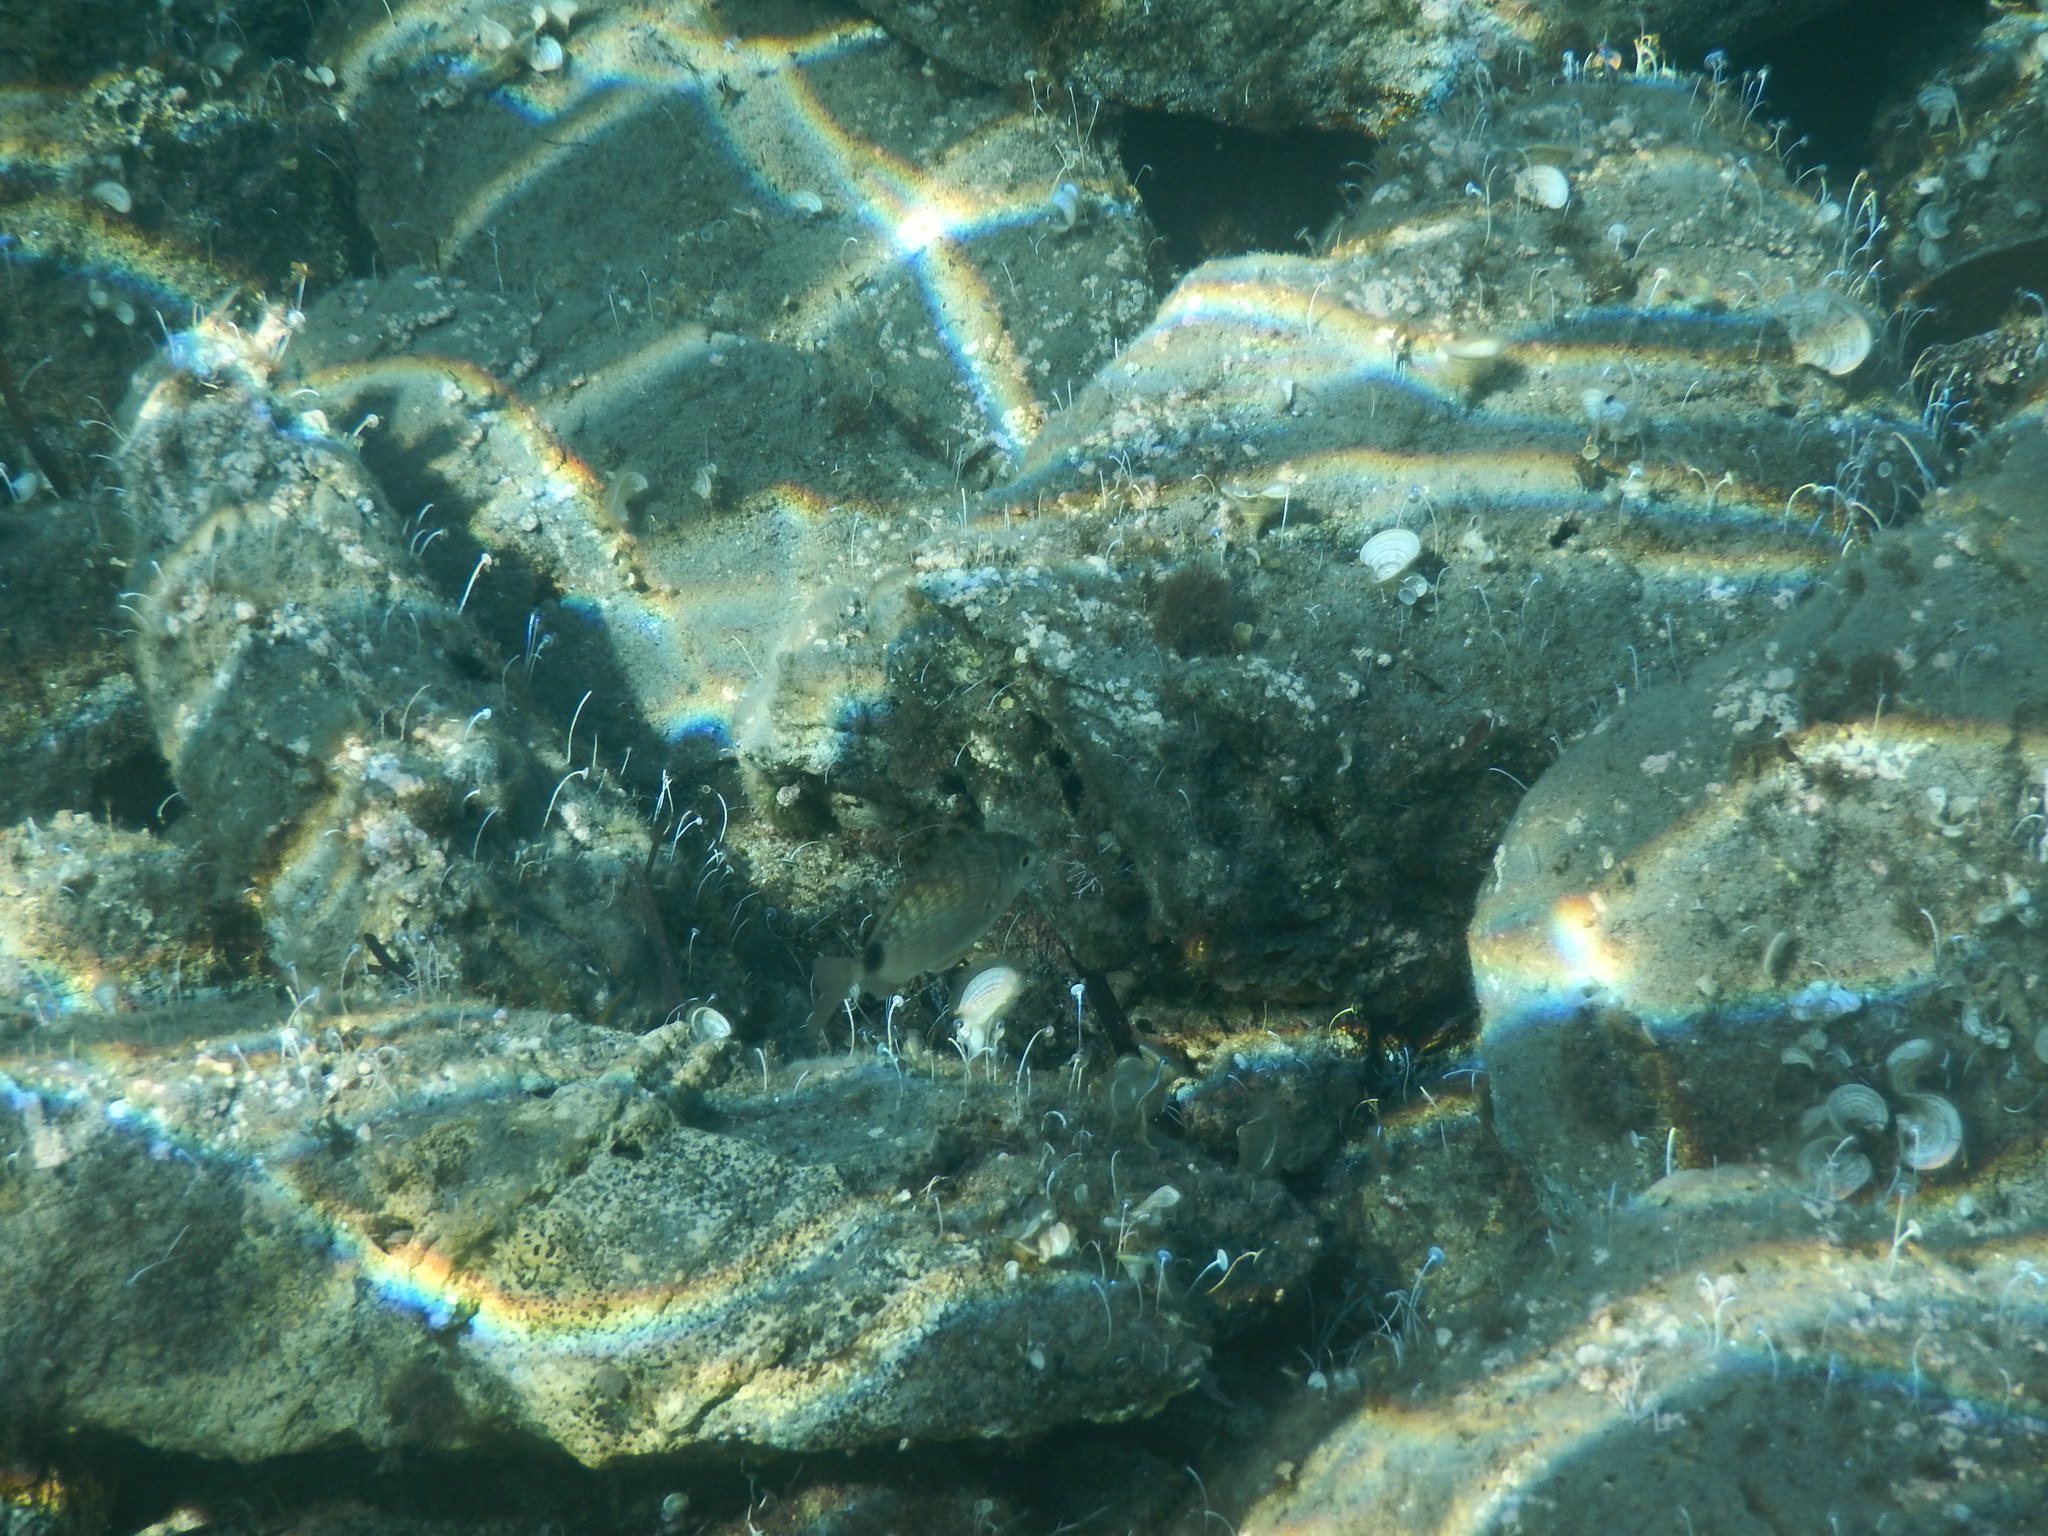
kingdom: Animalia
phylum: Chordata
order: Perciformes
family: Sparidae
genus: Diplodus
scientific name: Diplodus
